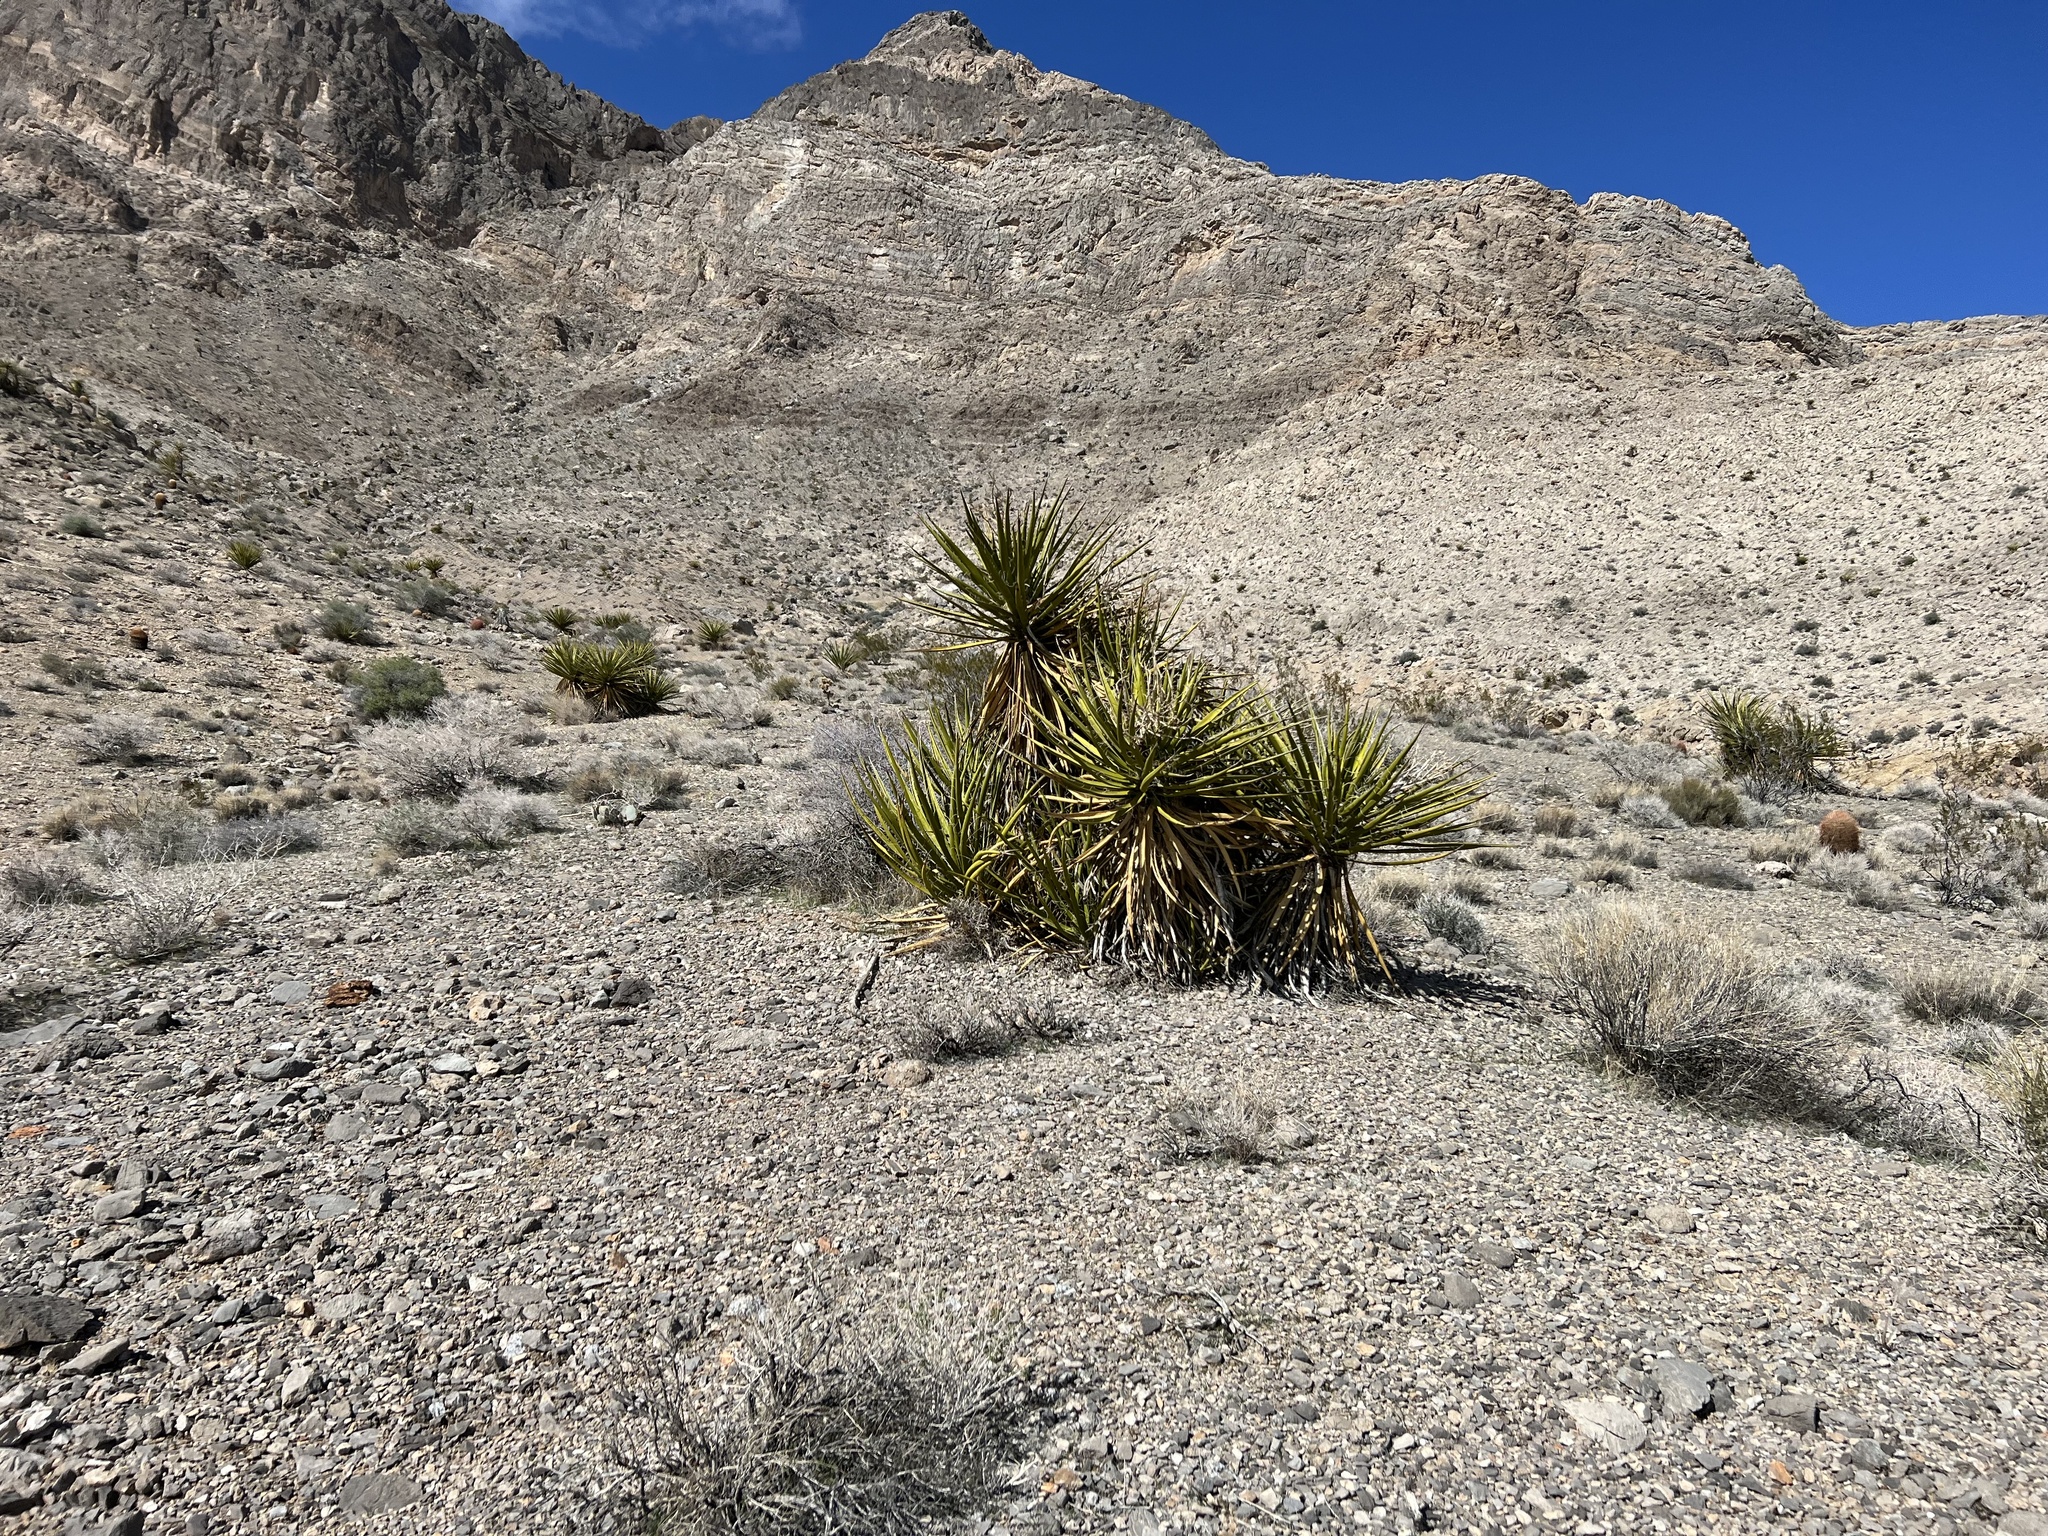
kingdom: Plantae
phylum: Tracheophyta
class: Liliopsida
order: Asparagales
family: Asparagaceae
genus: Yucca
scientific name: Yucca schidigera
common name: Mojave yucca
